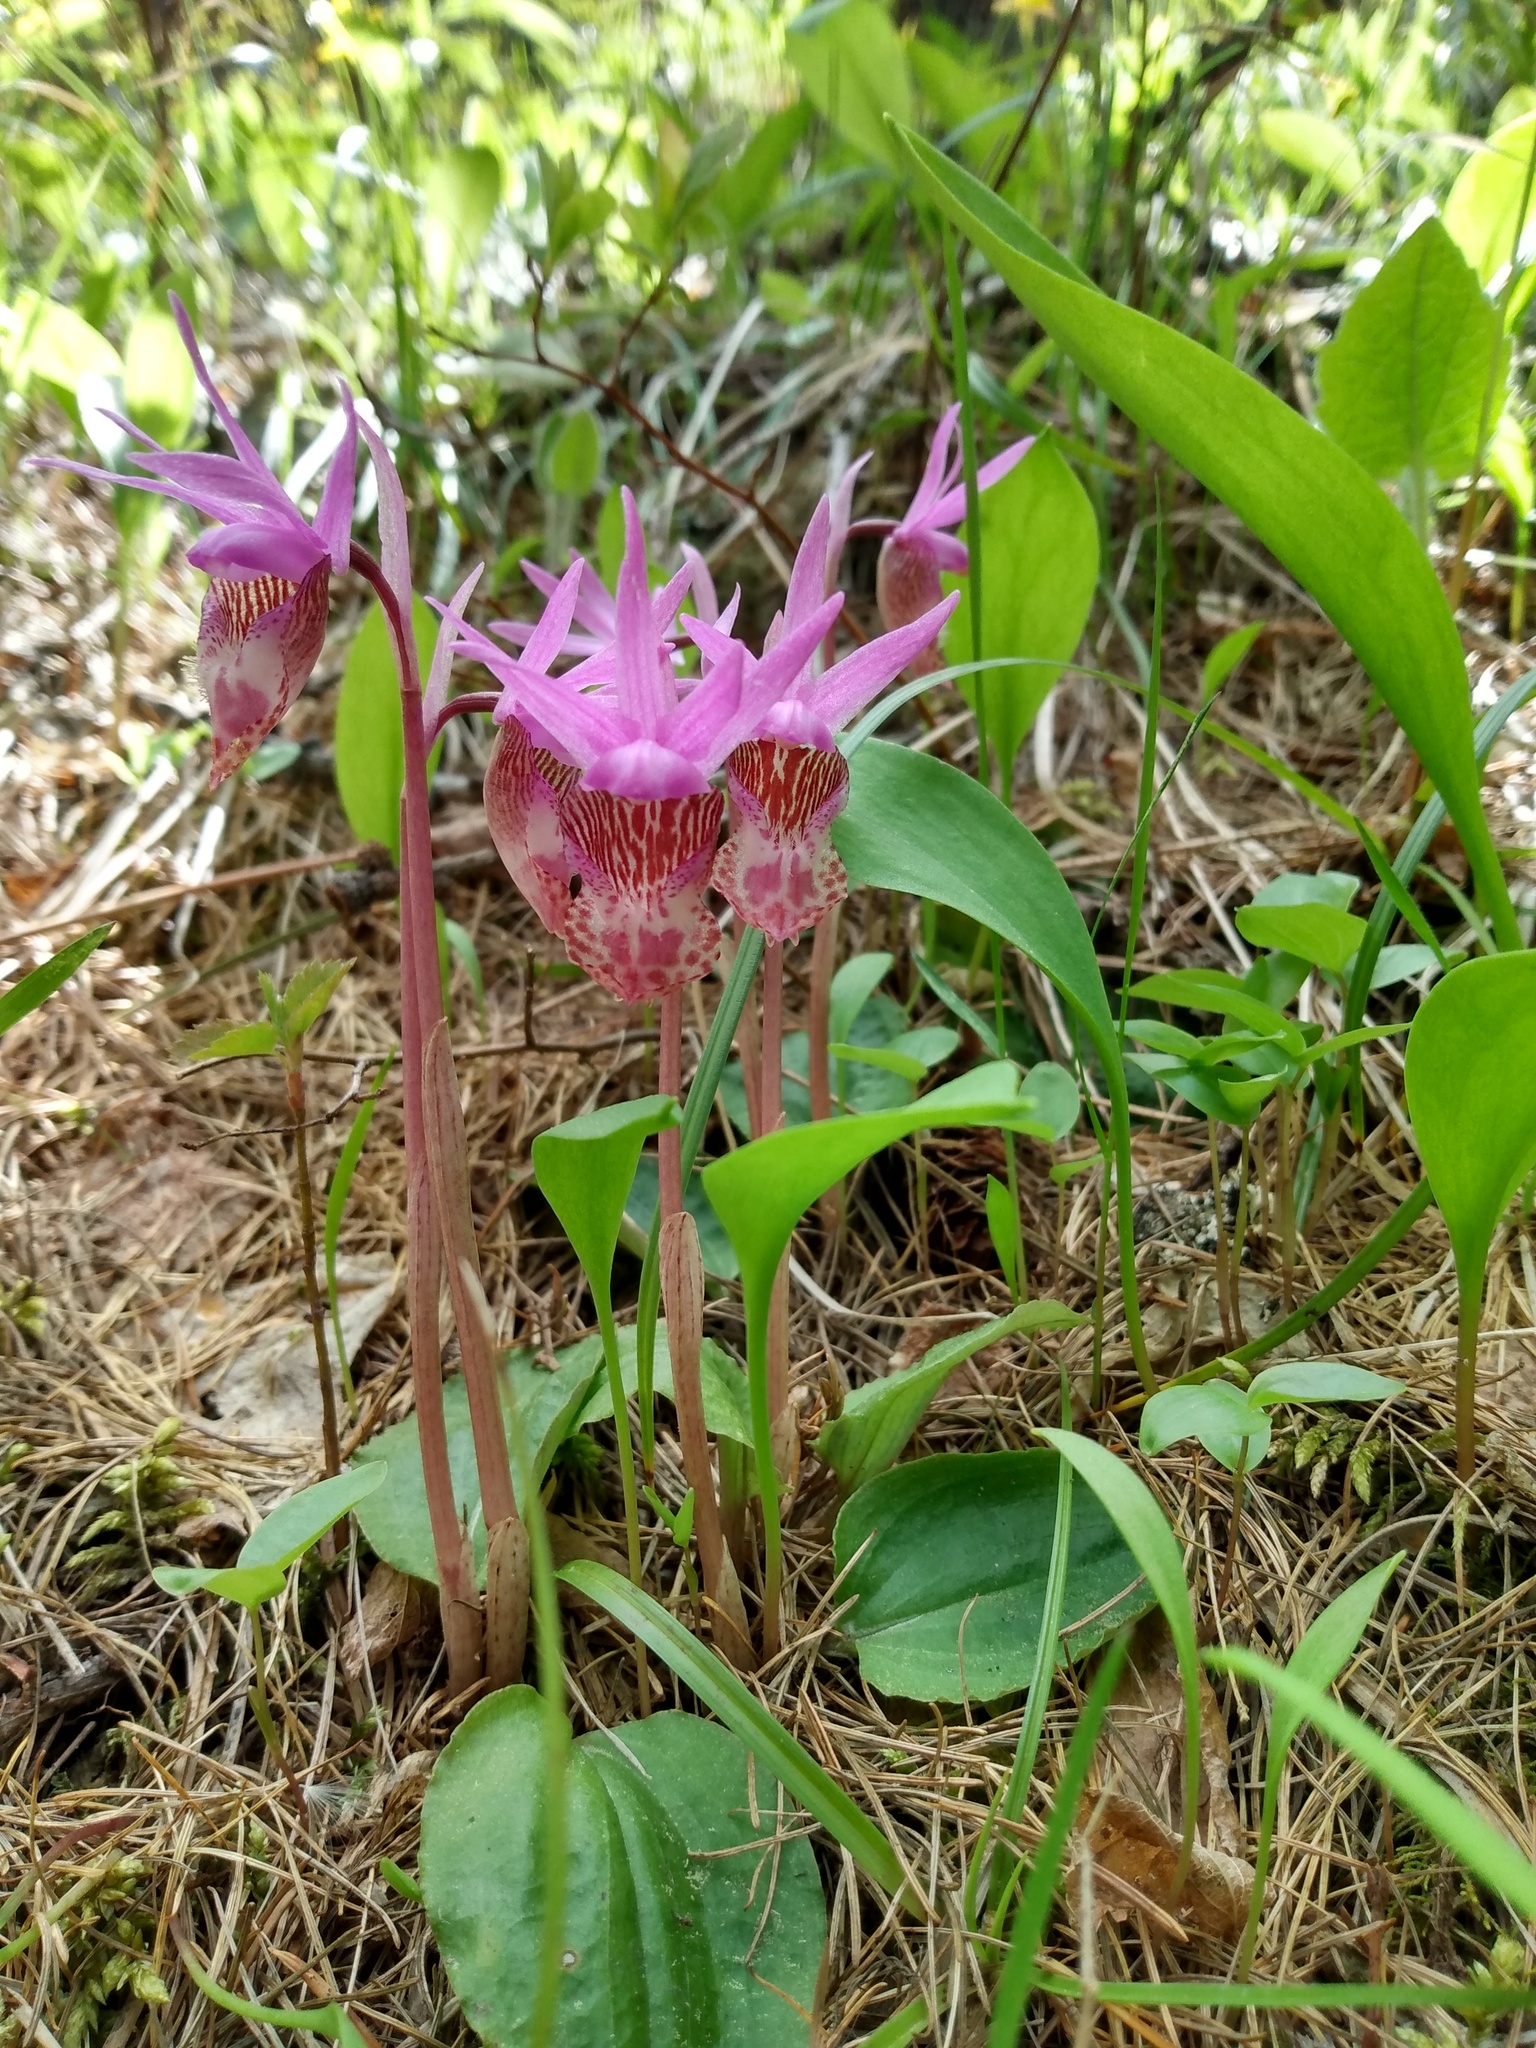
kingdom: Plantae
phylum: Tracheophyta
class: Liliopsida
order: Asparagales
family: Orchidaceae
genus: Calypso
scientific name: Calypso bulbosa
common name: Calypso
